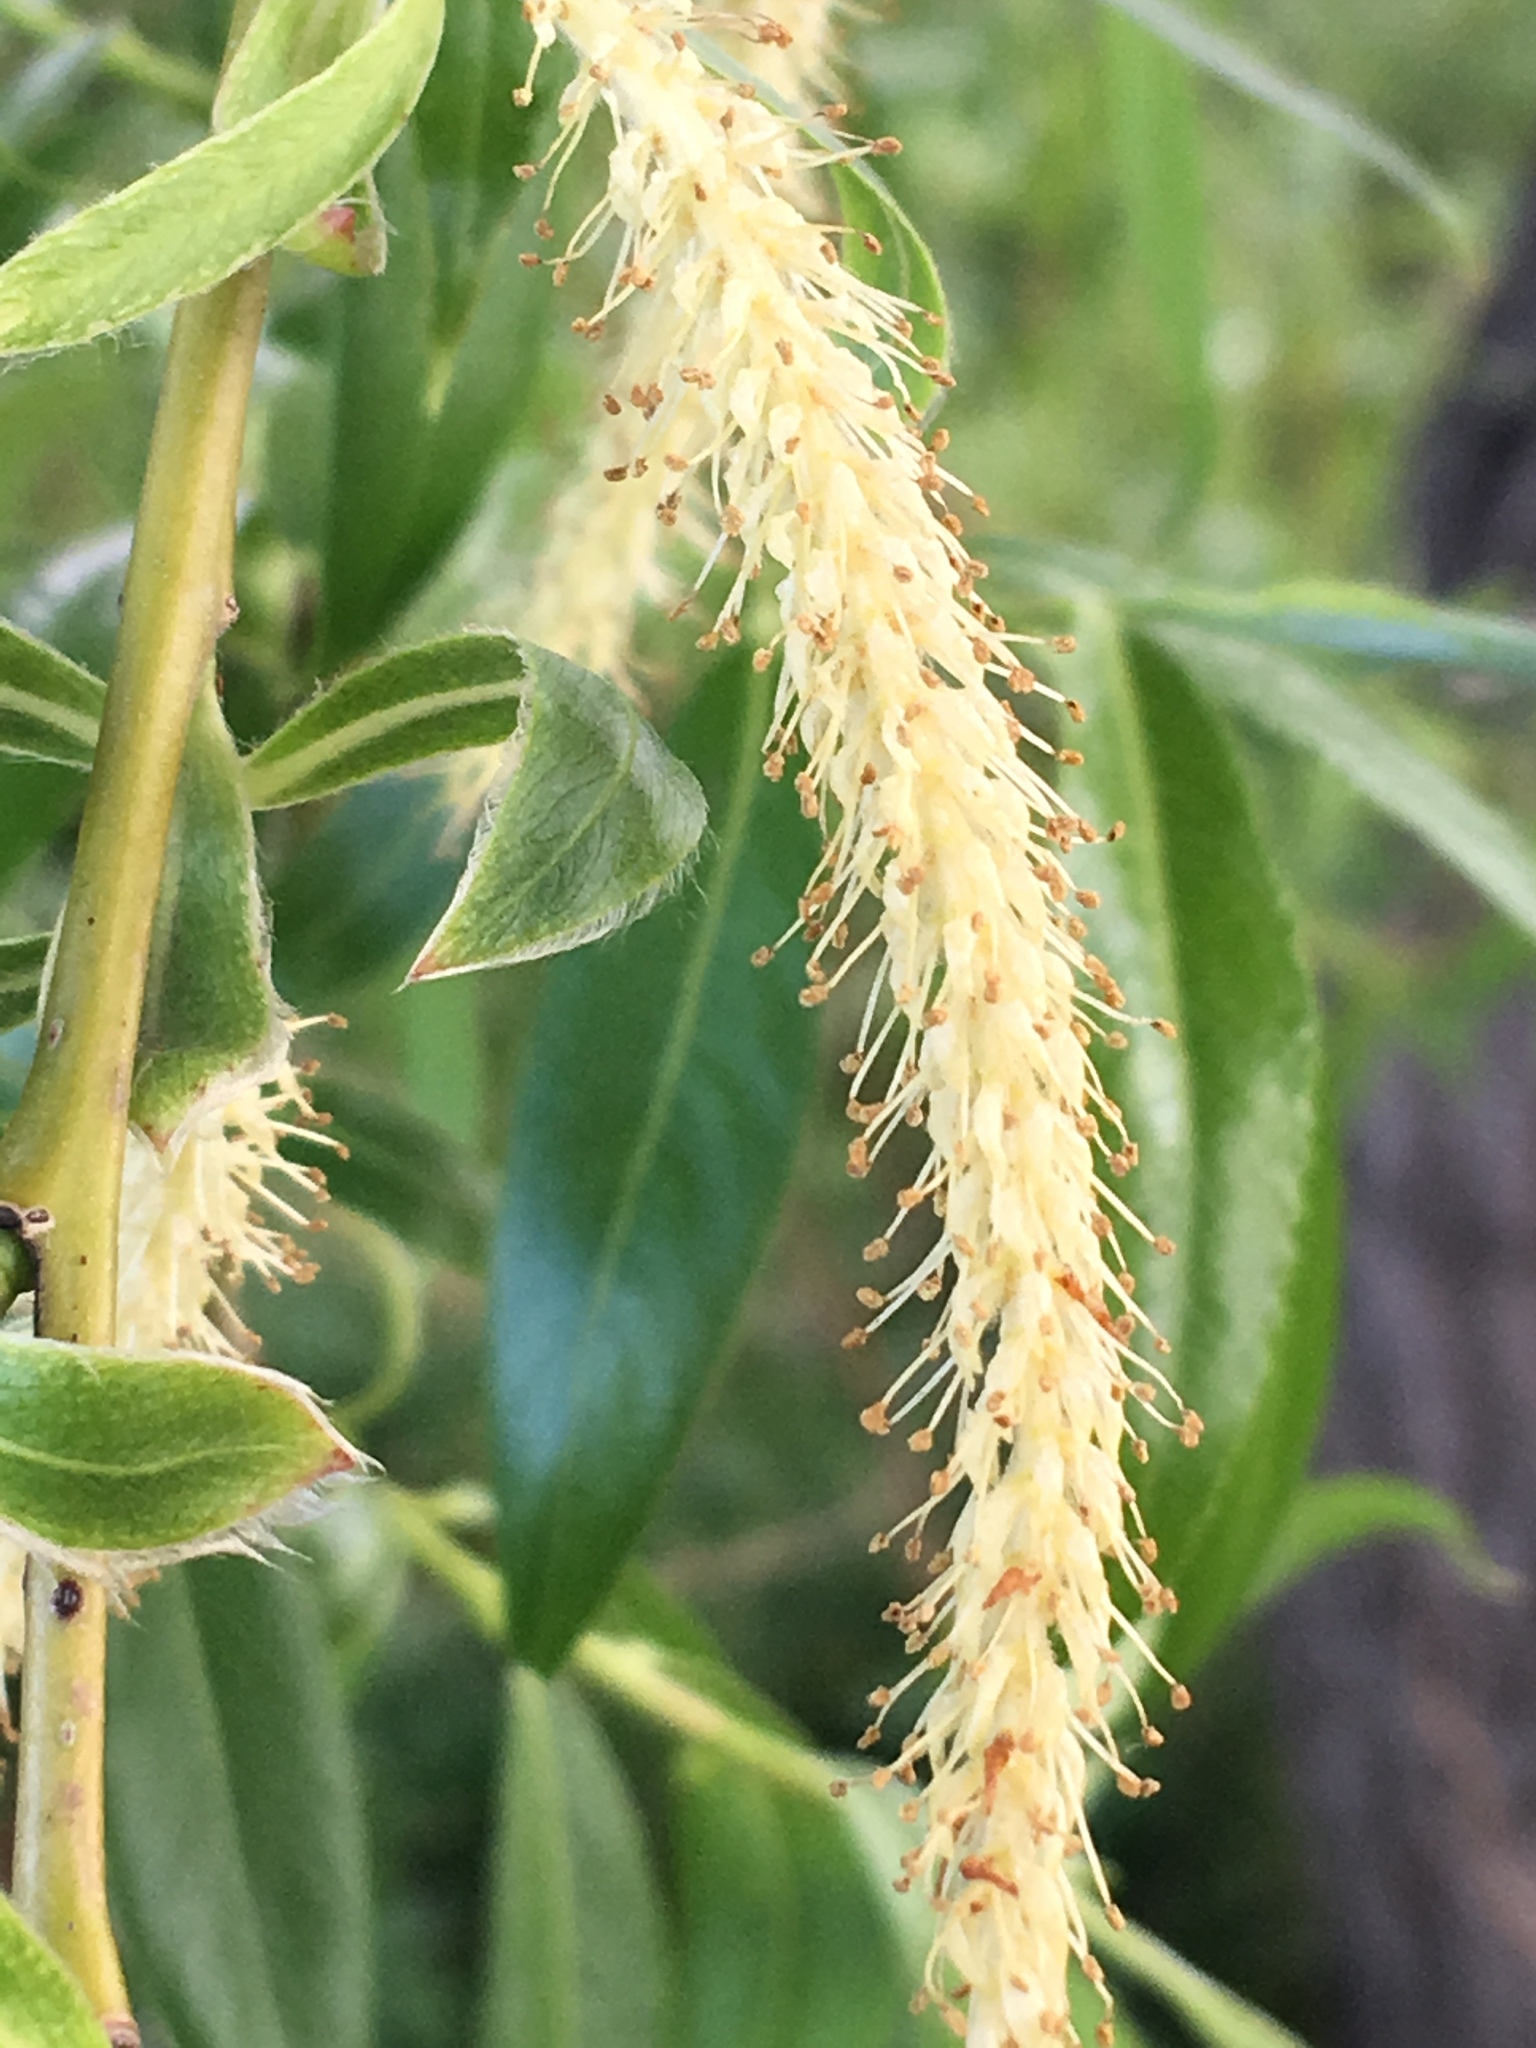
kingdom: Plantae
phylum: Tracheophyta
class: Magnoliopsida
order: Malpighiales
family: Salicaceae
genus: Salix
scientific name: Salix babylonica
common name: Weeping willow
